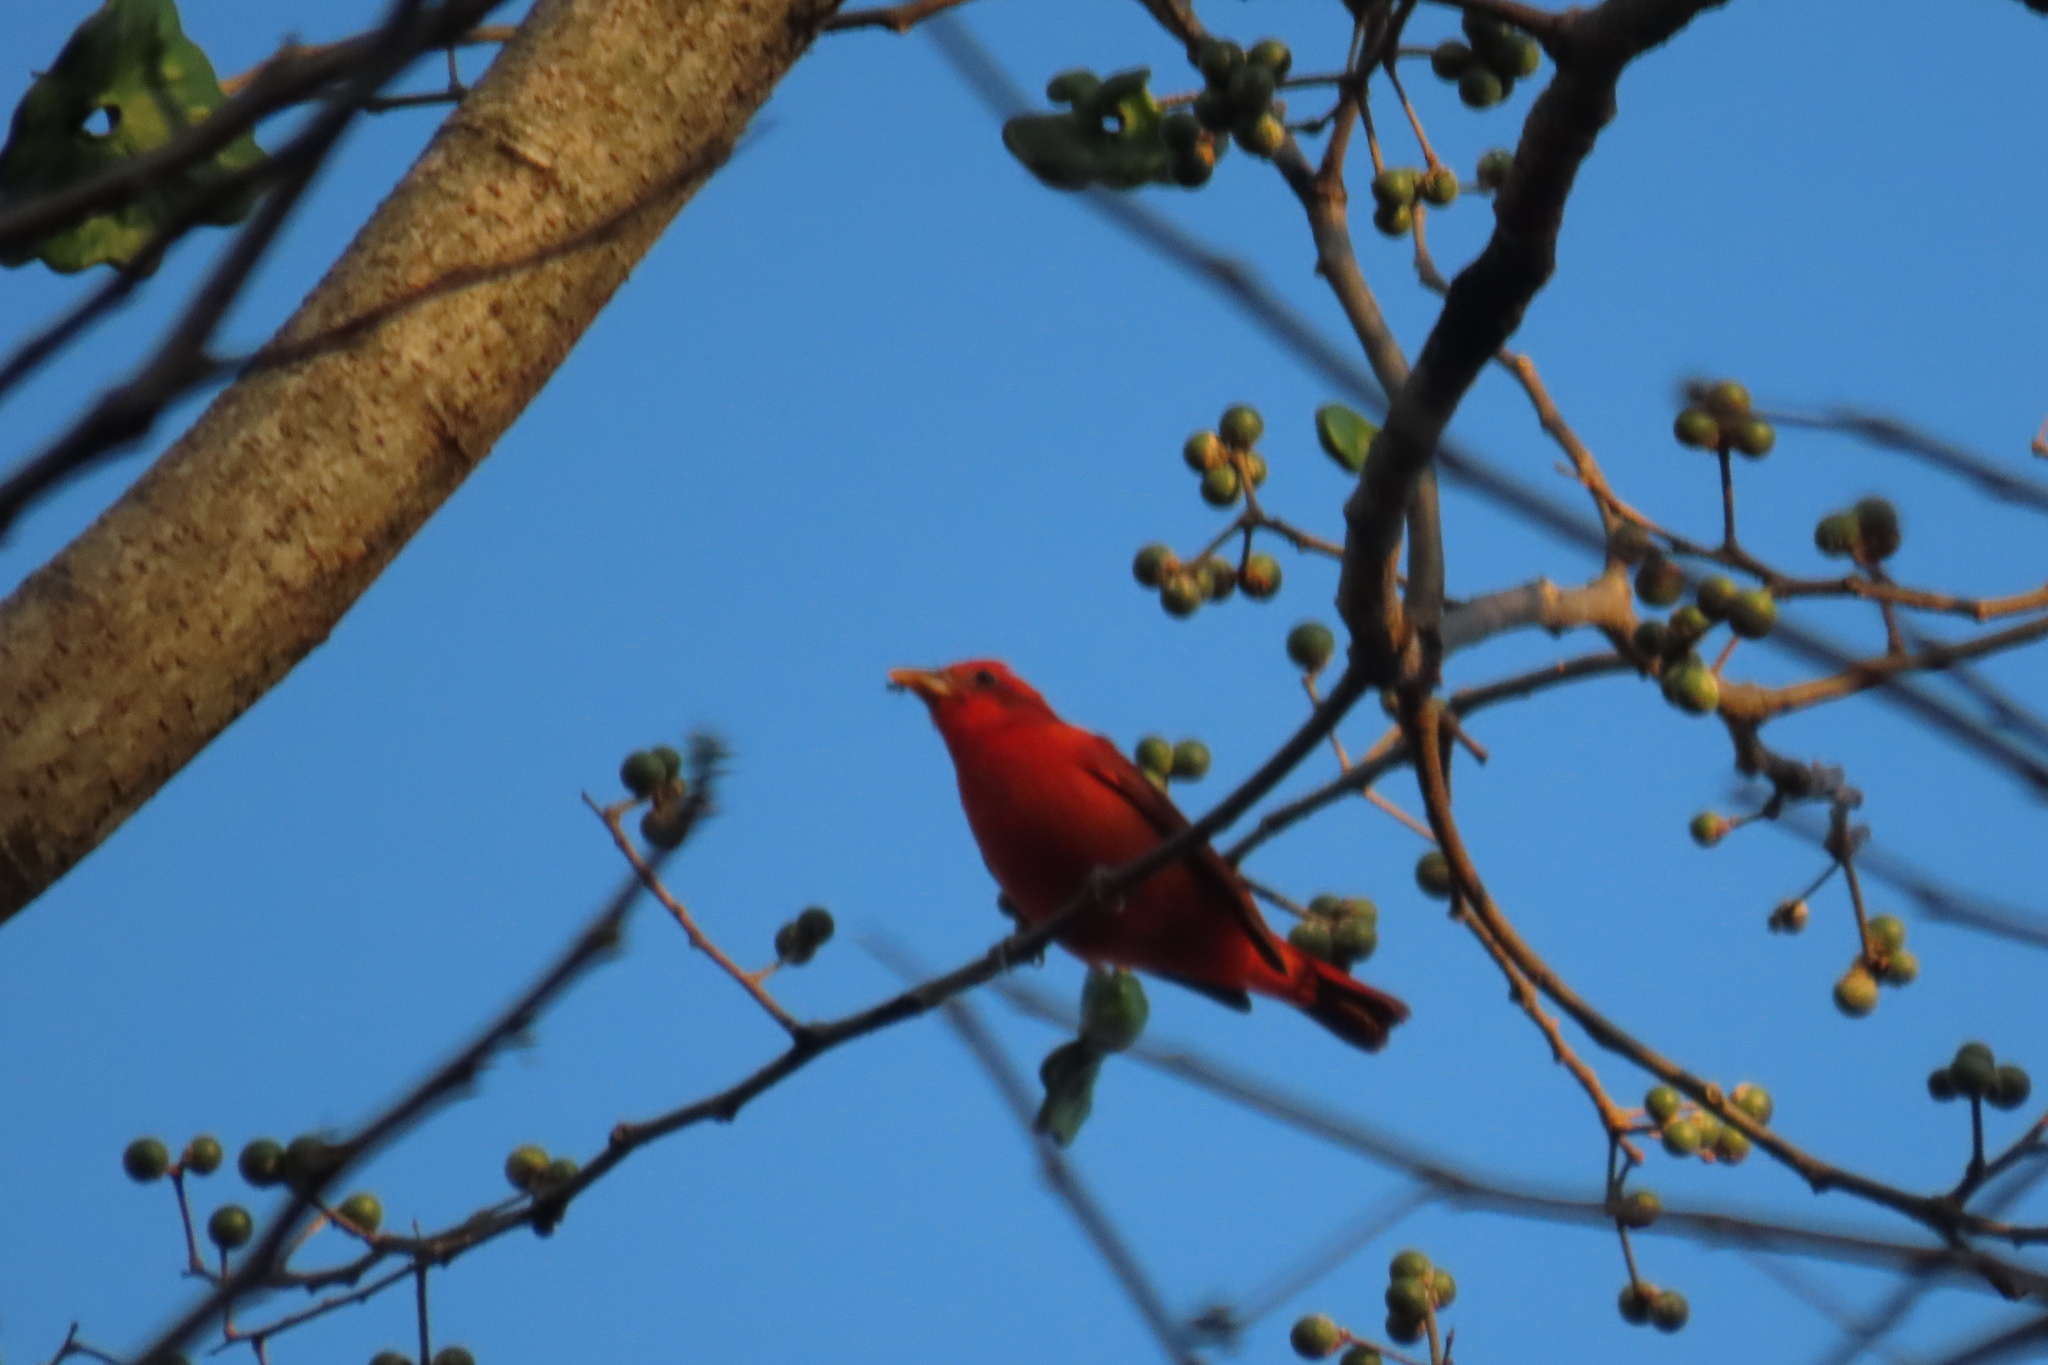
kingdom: Animalia
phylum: Chordata
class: Aves
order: Passeriformes
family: Cardinalidae
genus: Piranga
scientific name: Piranga rubra
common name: Summer tanager
